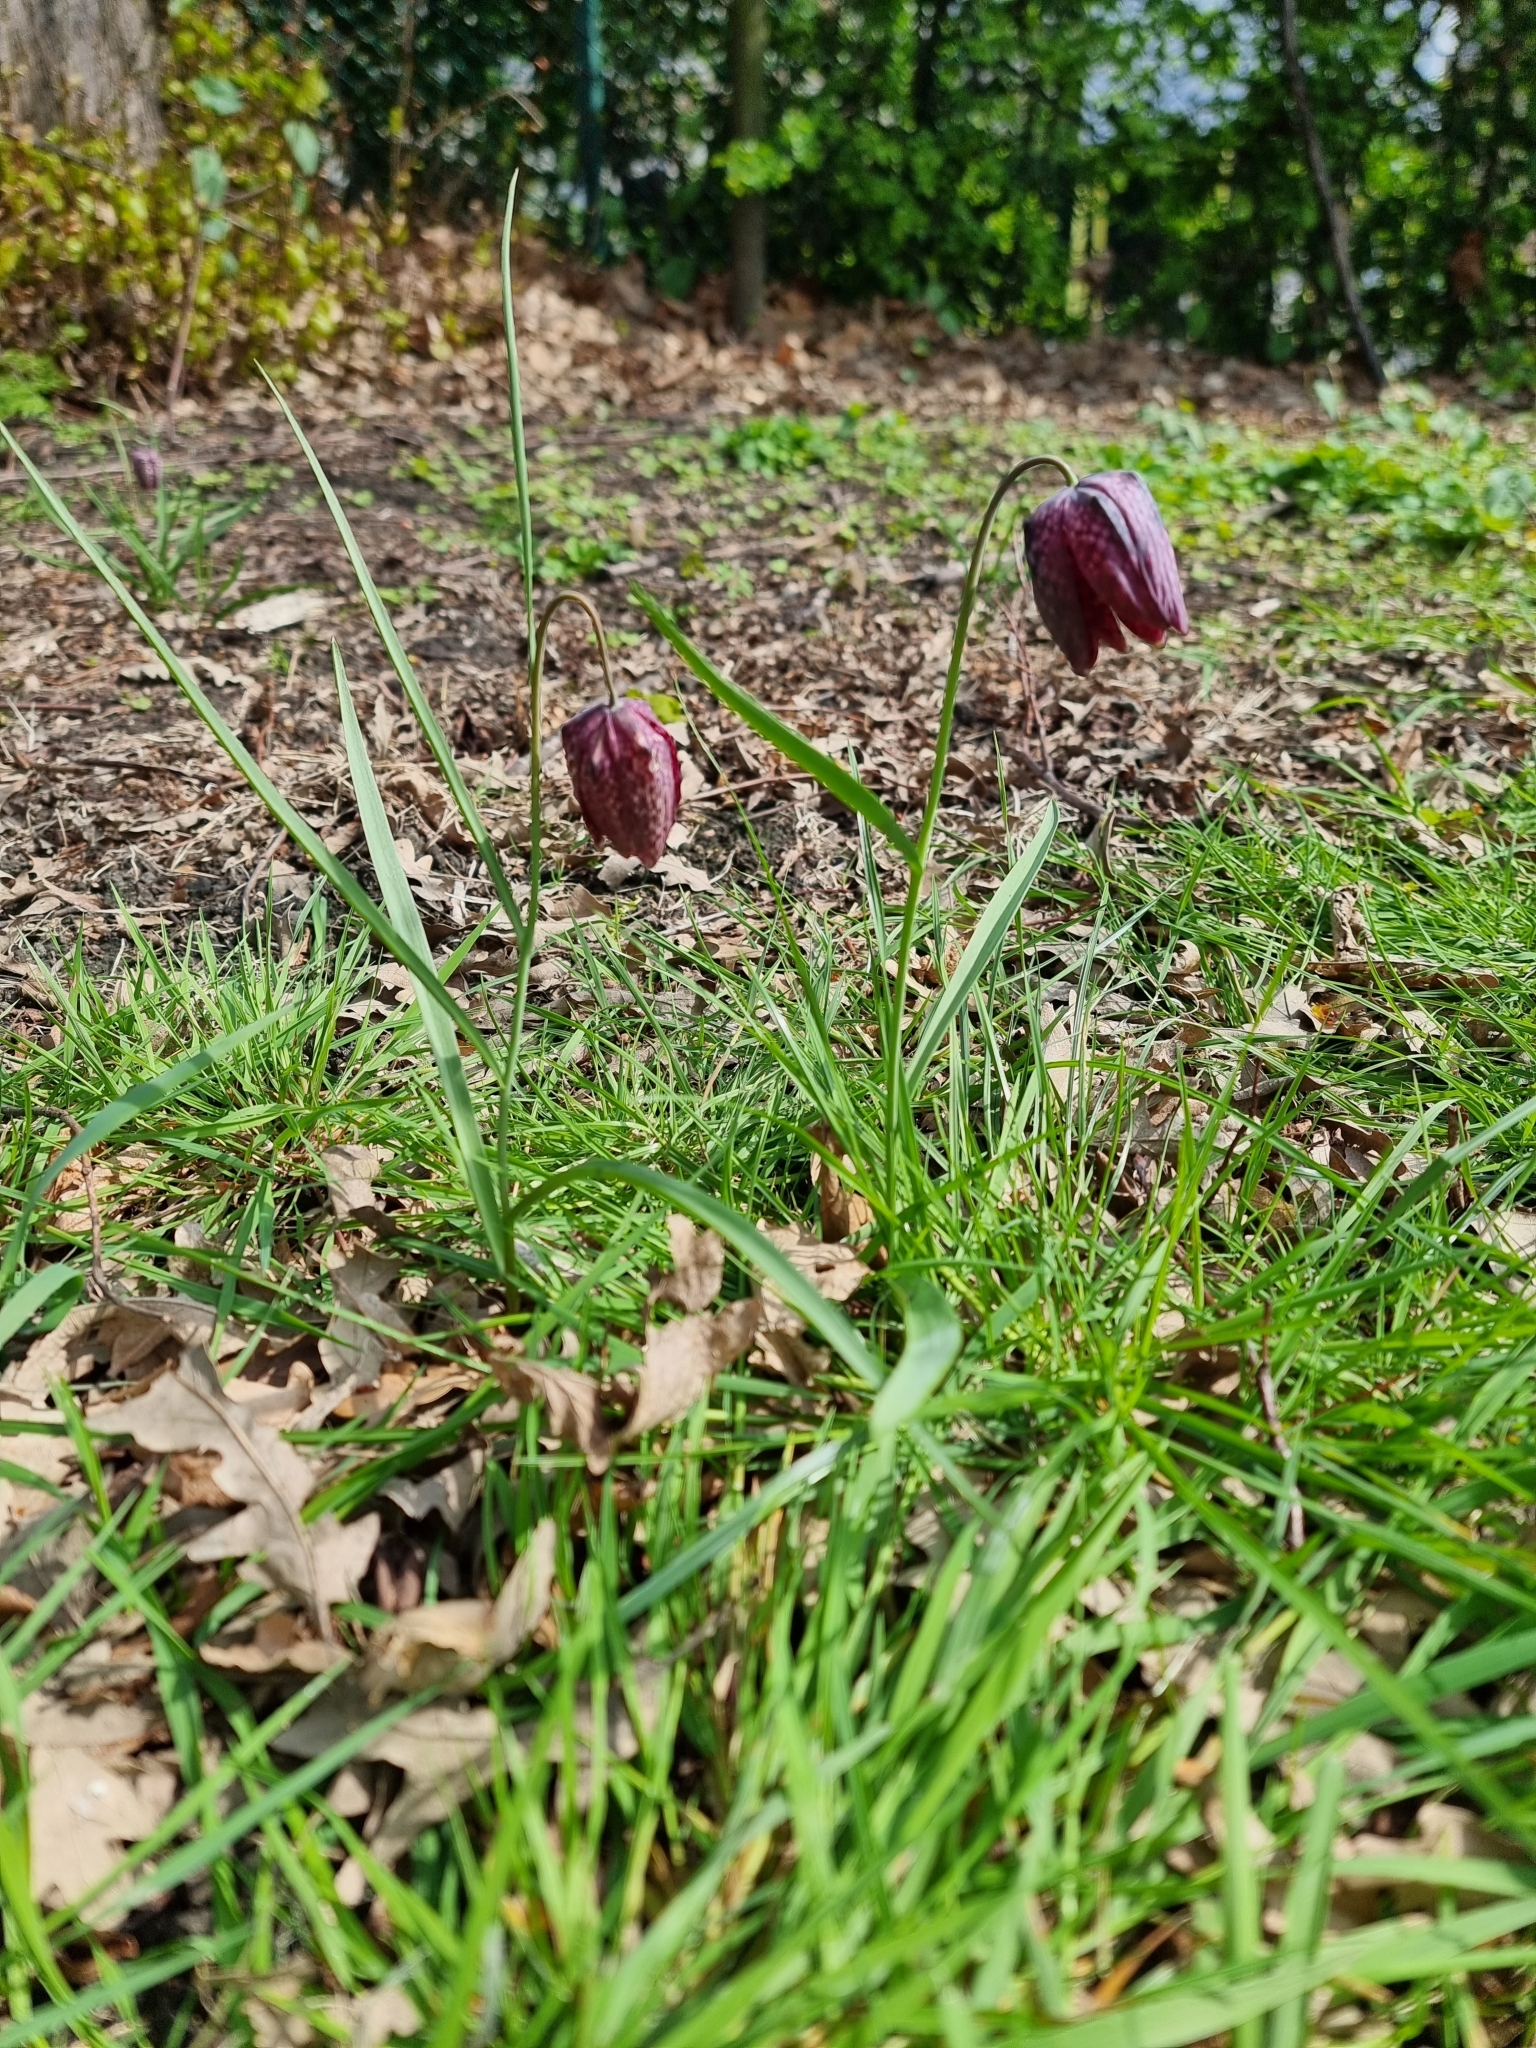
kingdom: Plantae
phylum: Tracheophyta
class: Liliopsida
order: Liliales
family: Liliaceae
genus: Fritillaria
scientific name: Fritillaria meleagris
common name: Fritillary
